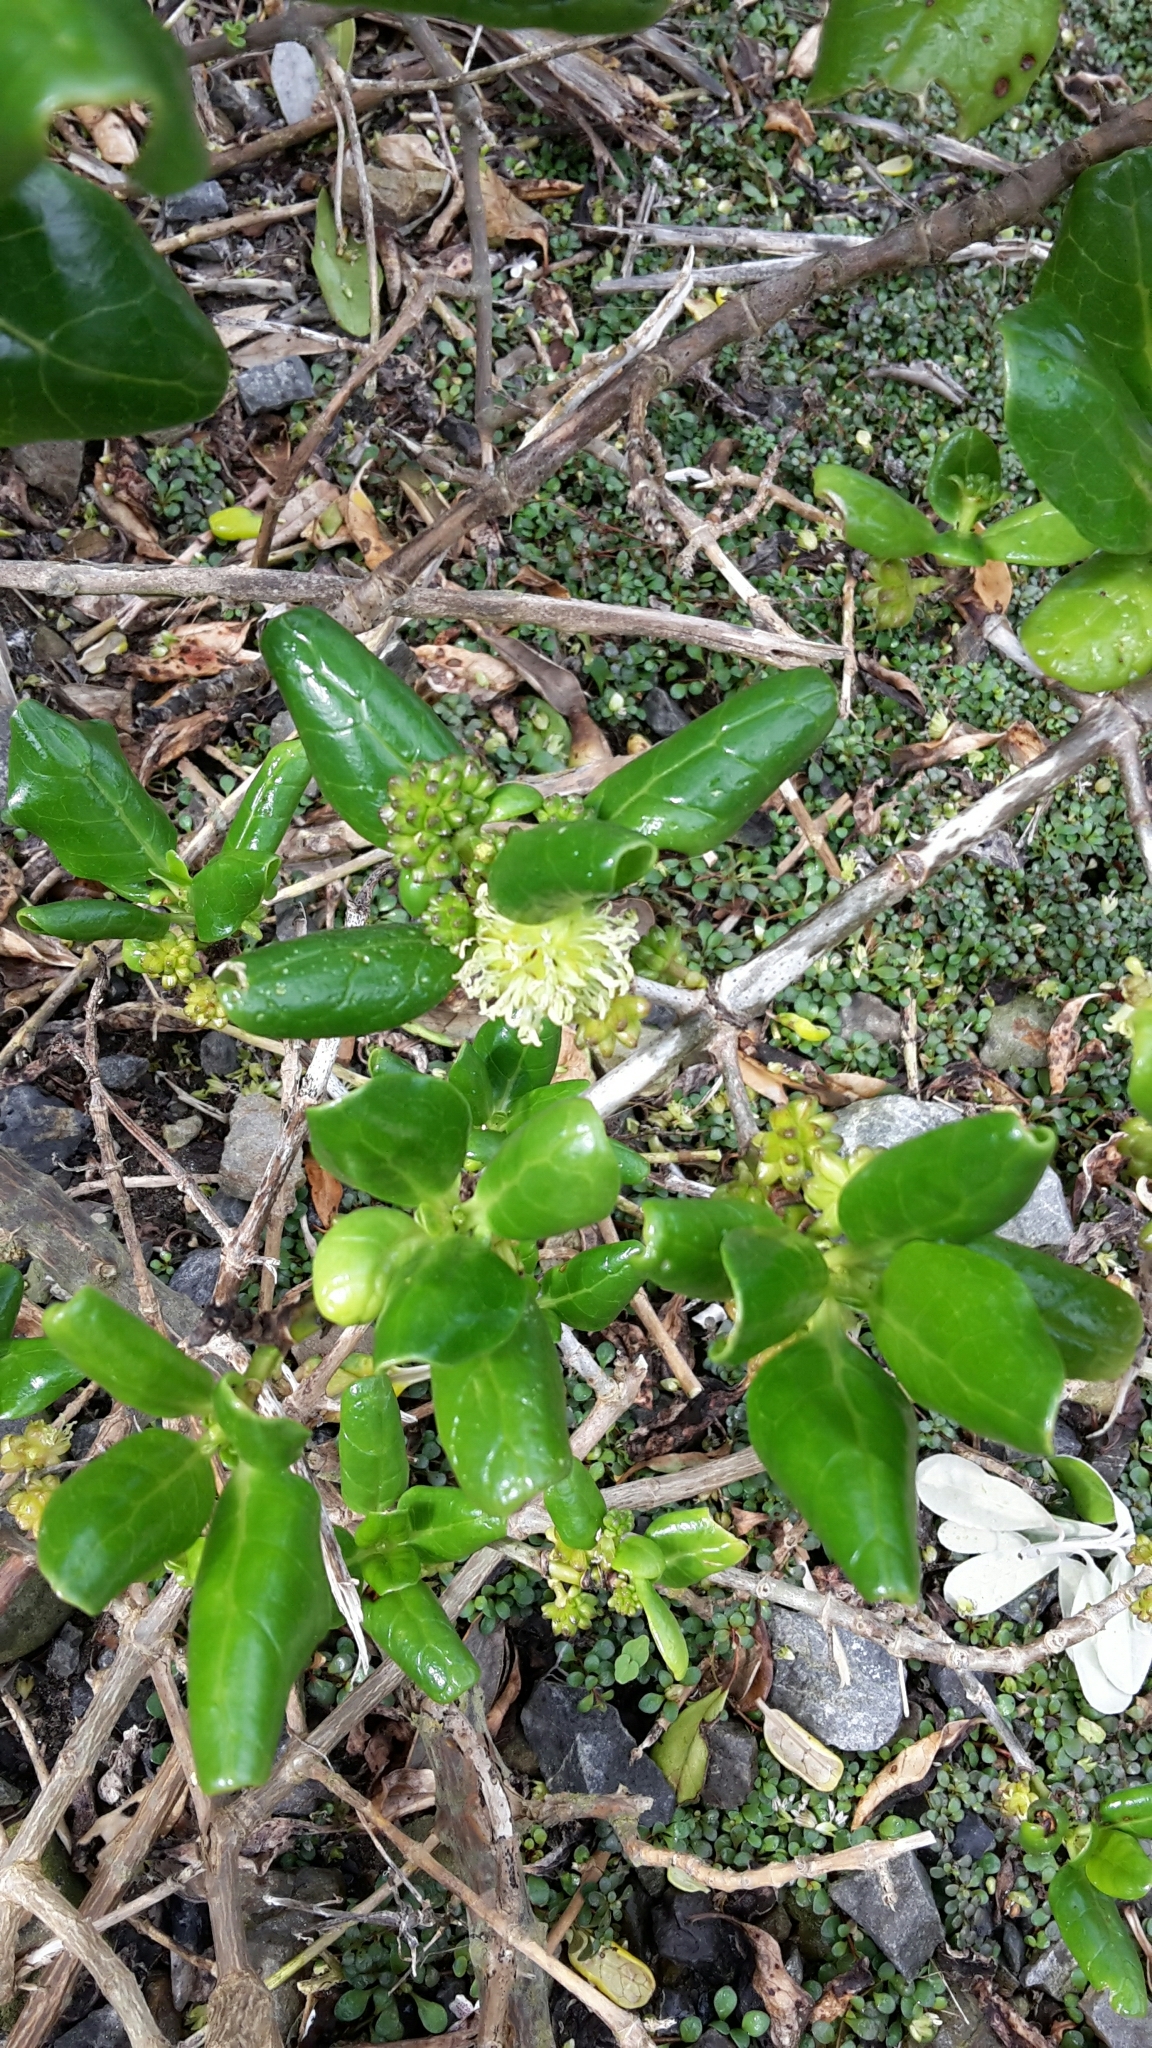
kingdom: Plantae
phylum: Tracheophyta
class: Magnoliopsida
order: Gentianales
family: Rubiaceae
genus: Coprosma
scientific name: Coprosma repens
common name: Tree bedstraw
